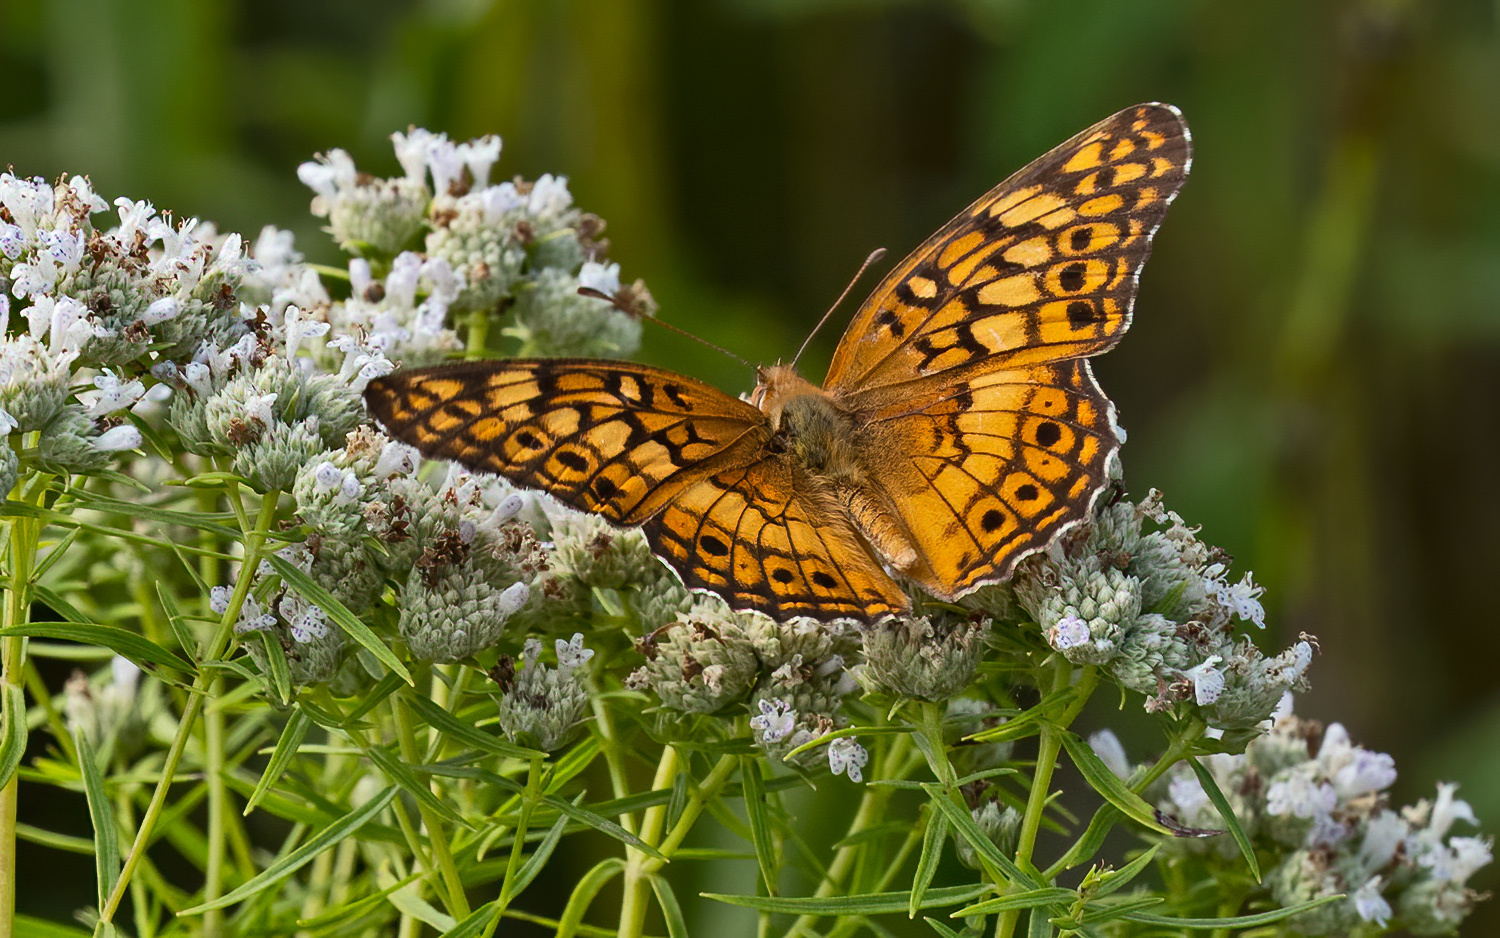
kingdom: Animalia
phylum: Arthropoda
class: Insecta
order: Lepidoptera
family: Nymphalidae
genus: Euptoieta
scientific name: Euptoieta claudia
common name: Variegated fritillary
